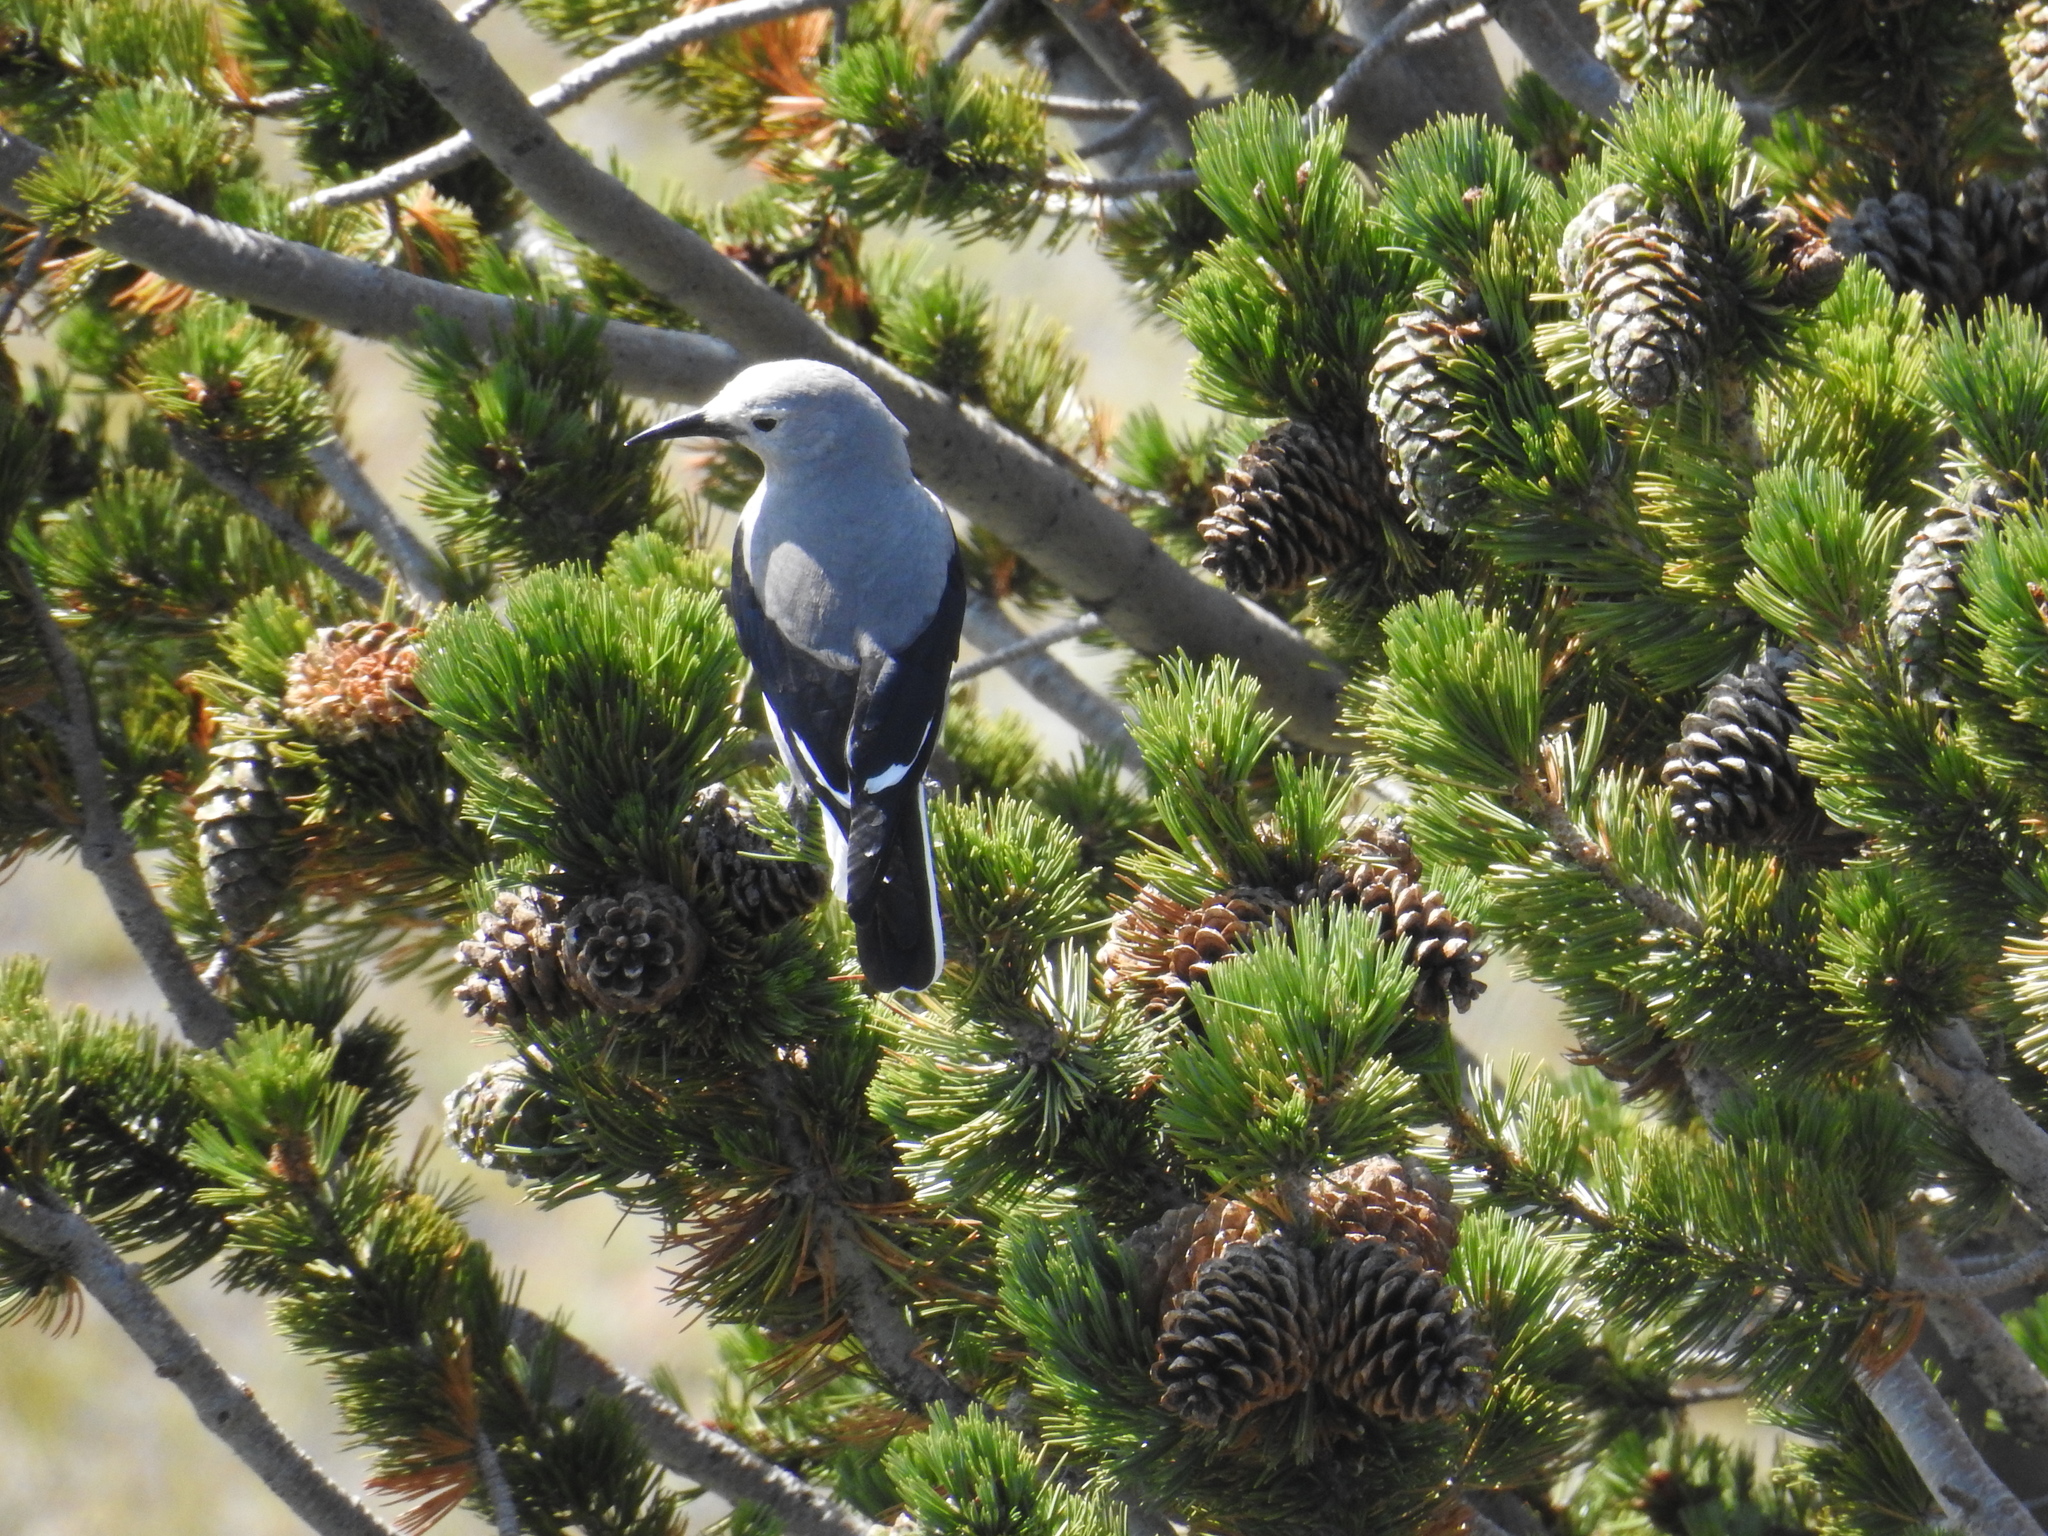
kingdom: Animalia
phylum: Chordata
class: Aves
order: Passeriformes
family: Corvidae
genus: Nucifraga
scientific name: Nucifraga columbiana
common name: Clark's nutcracker
